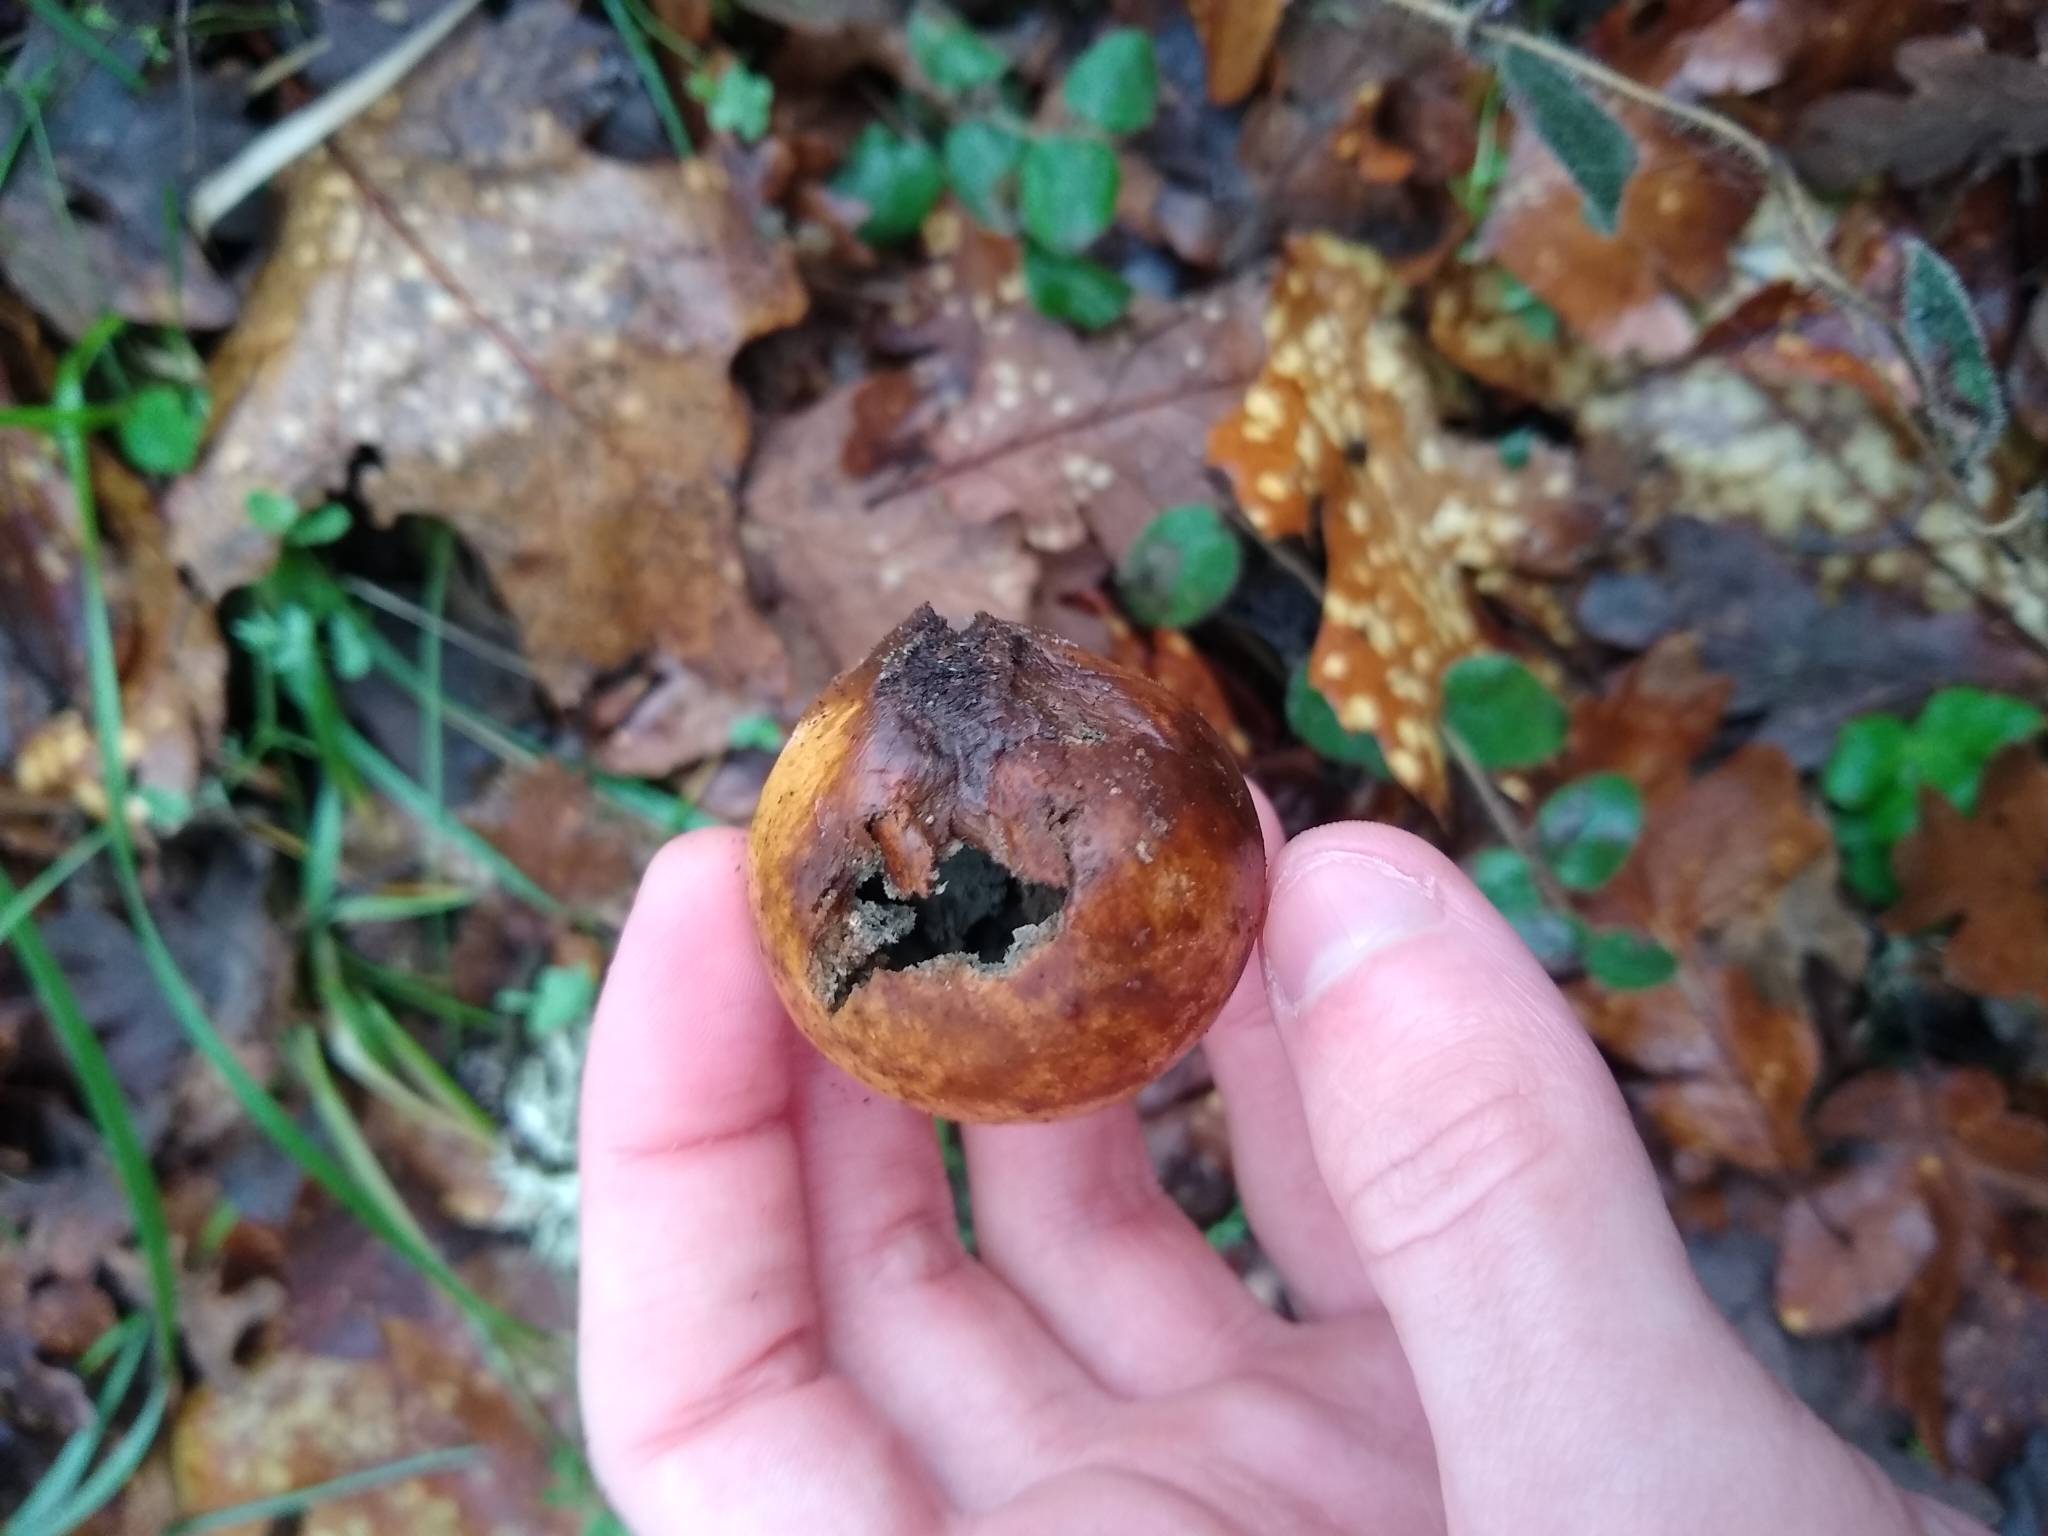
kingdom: Animalia
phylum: Arthropoda
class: Insecta
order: Hymenoptera
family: Cynipidae
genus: Andricus
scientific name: Andricus quercuscalifornicus
